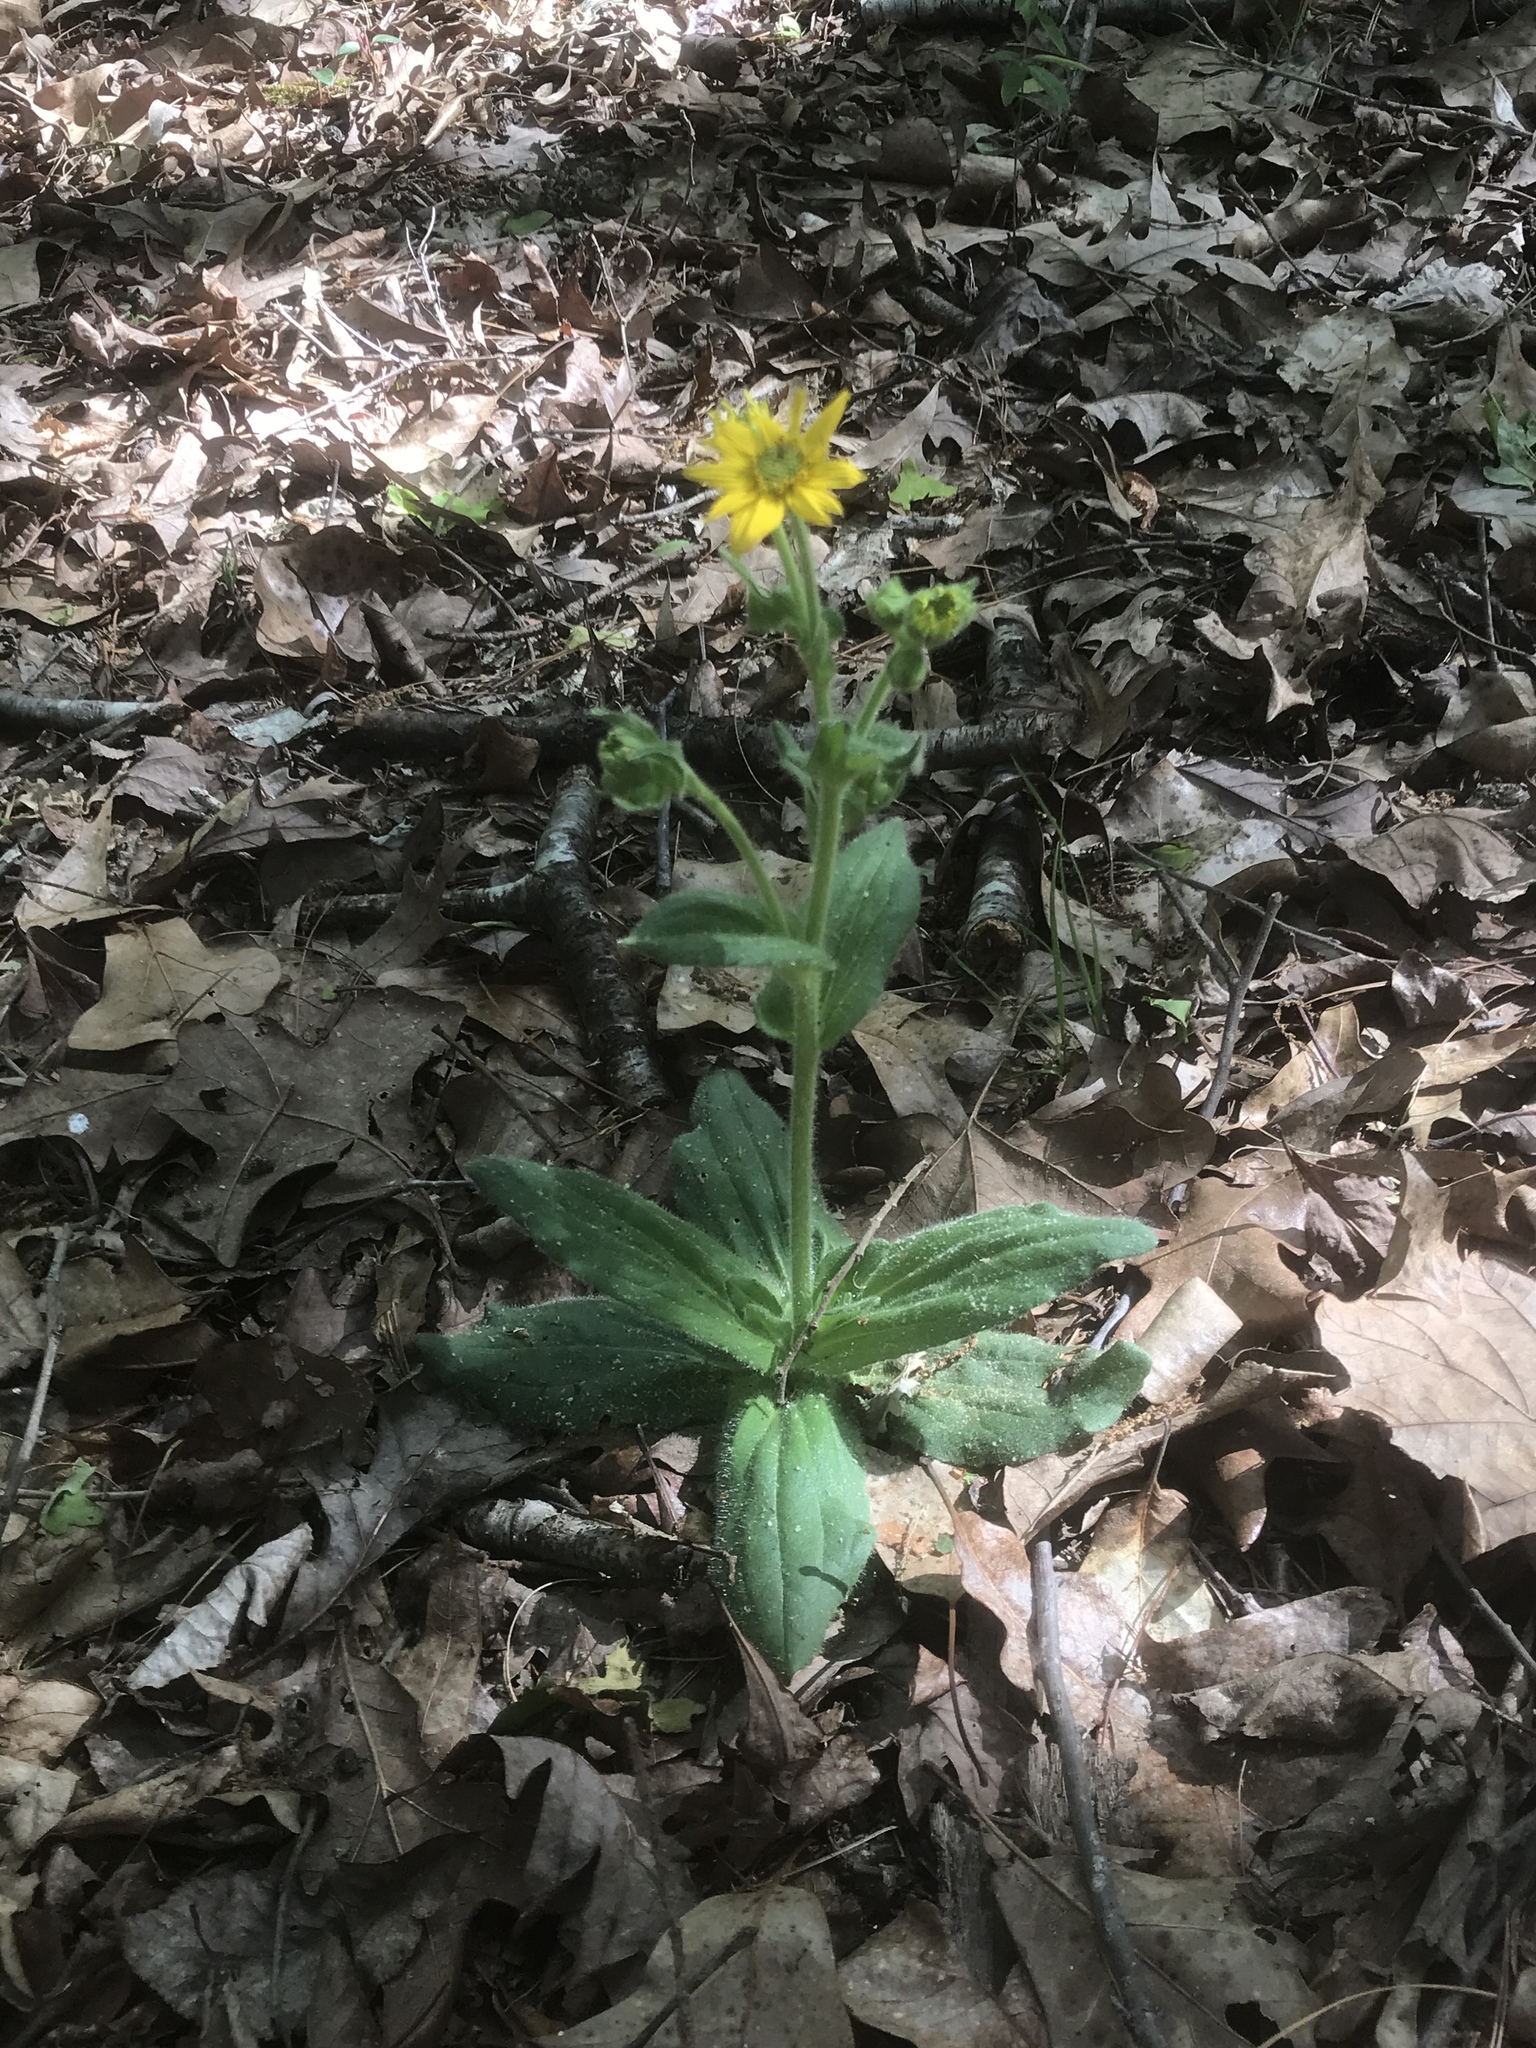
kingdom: Plantae
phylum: Tracheophyta
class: Magnoliopsida
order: Asterales
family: Asteraceae
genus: Arnica
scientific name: Arnica acaulis
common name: Common leopardbane
